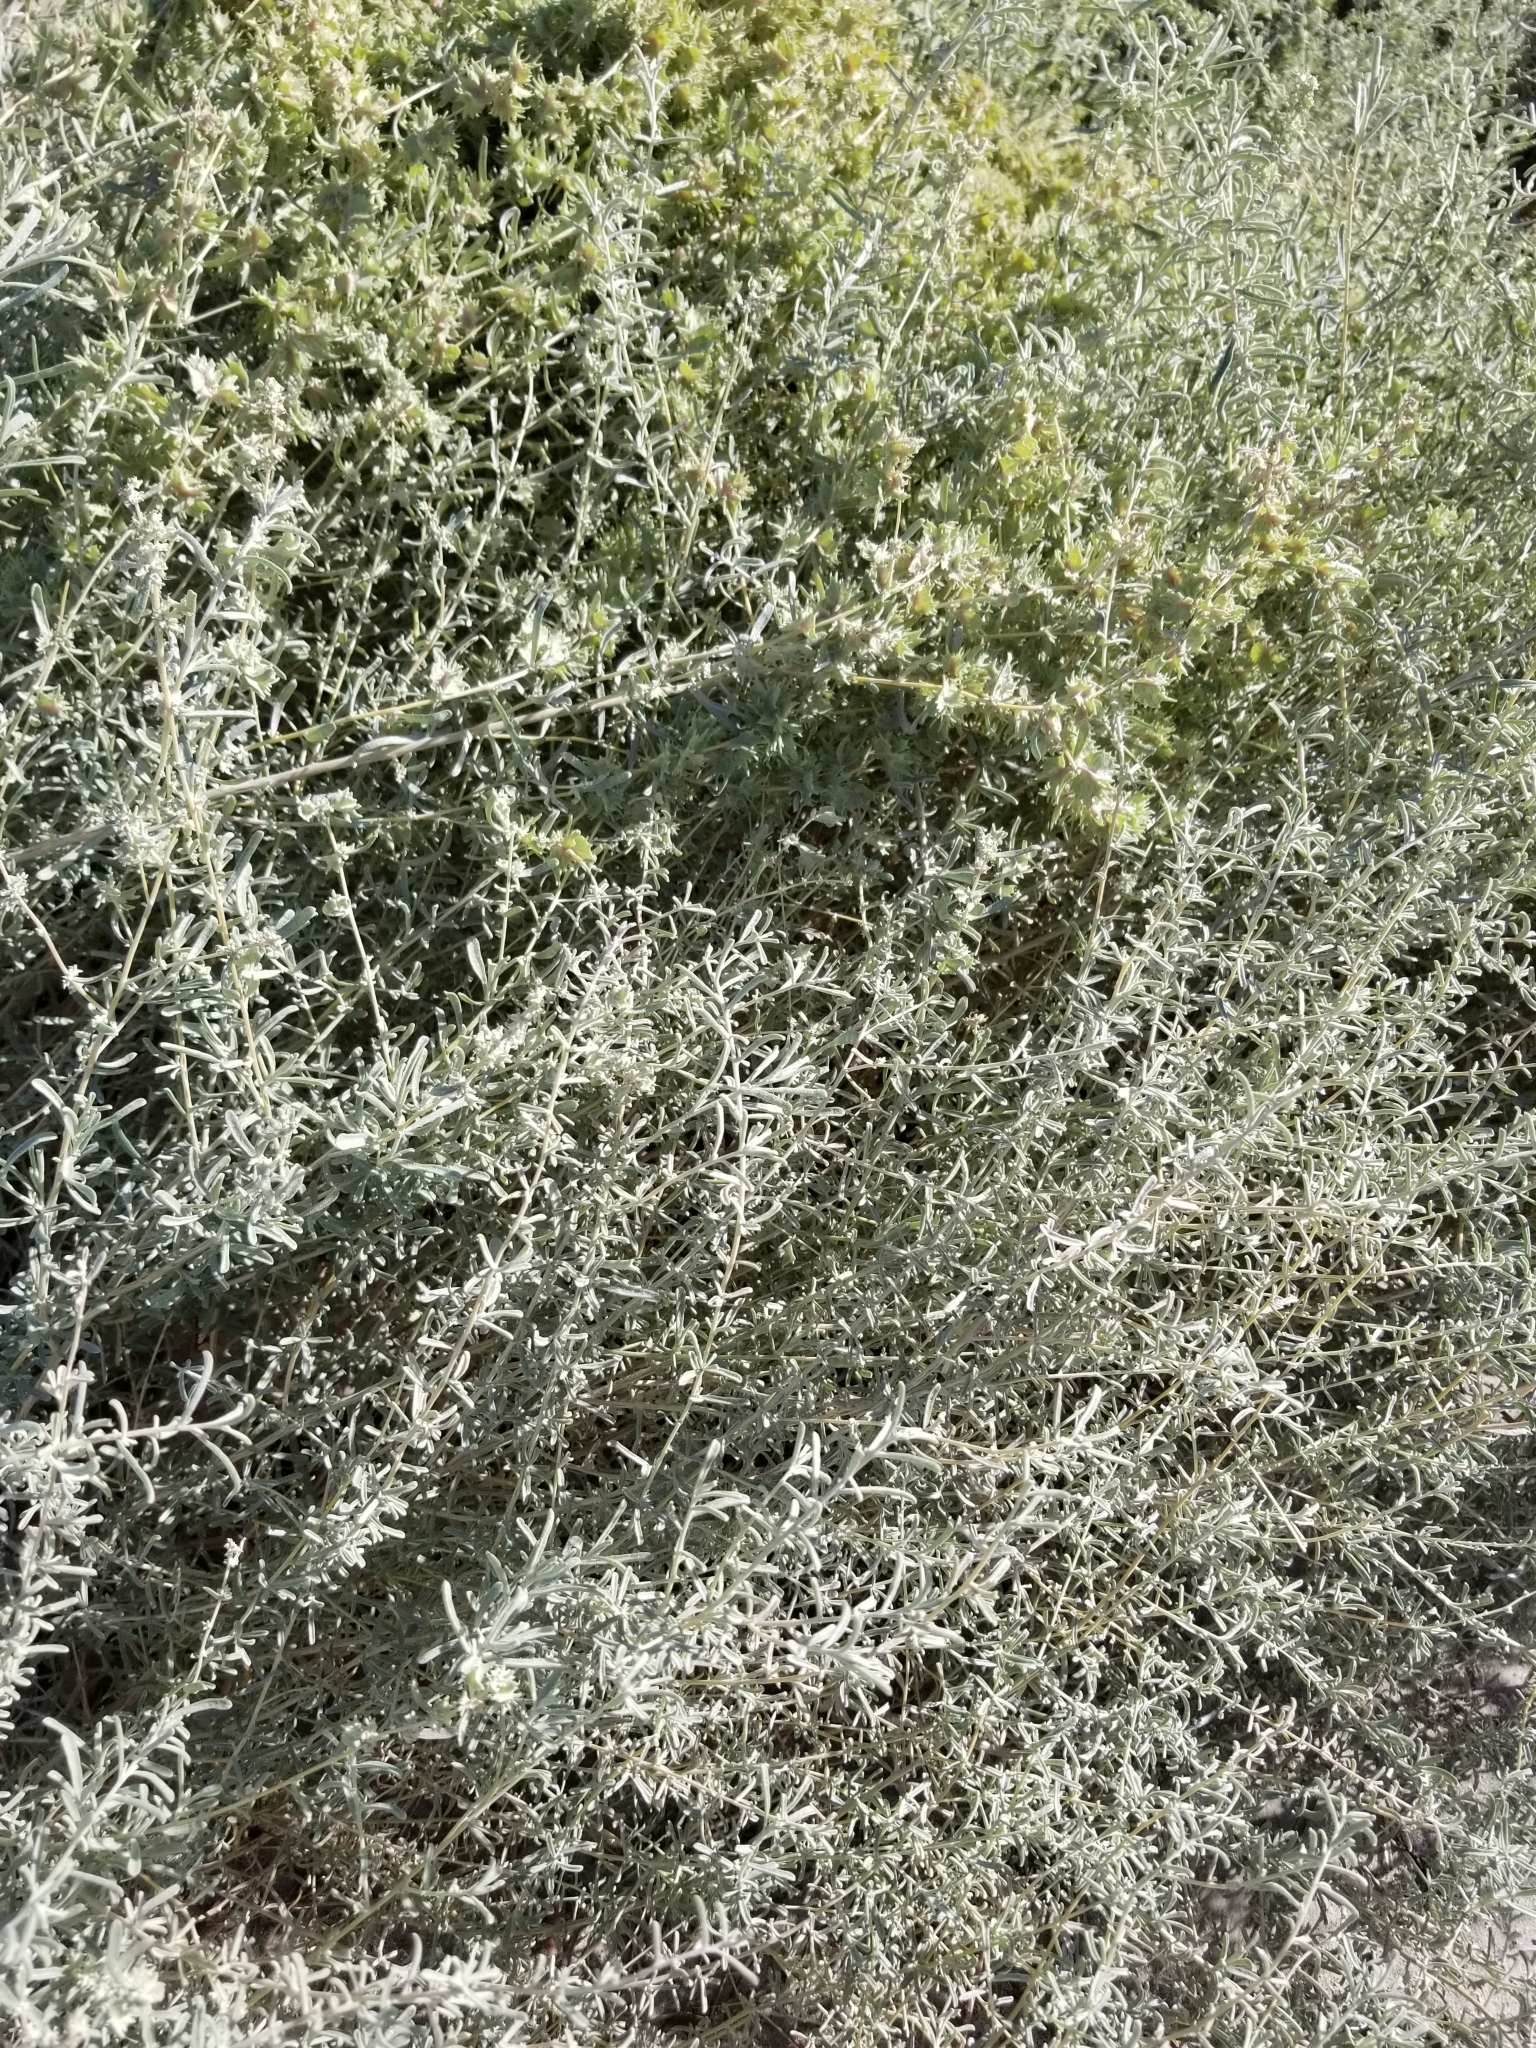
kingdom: Plantae
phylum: Tracheophyta
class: Magnoliopsida
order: Caryophyllales
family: Amaranthaceae
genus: Atriplex
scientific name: Atriplex canescens
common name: Four-wing saltbush
